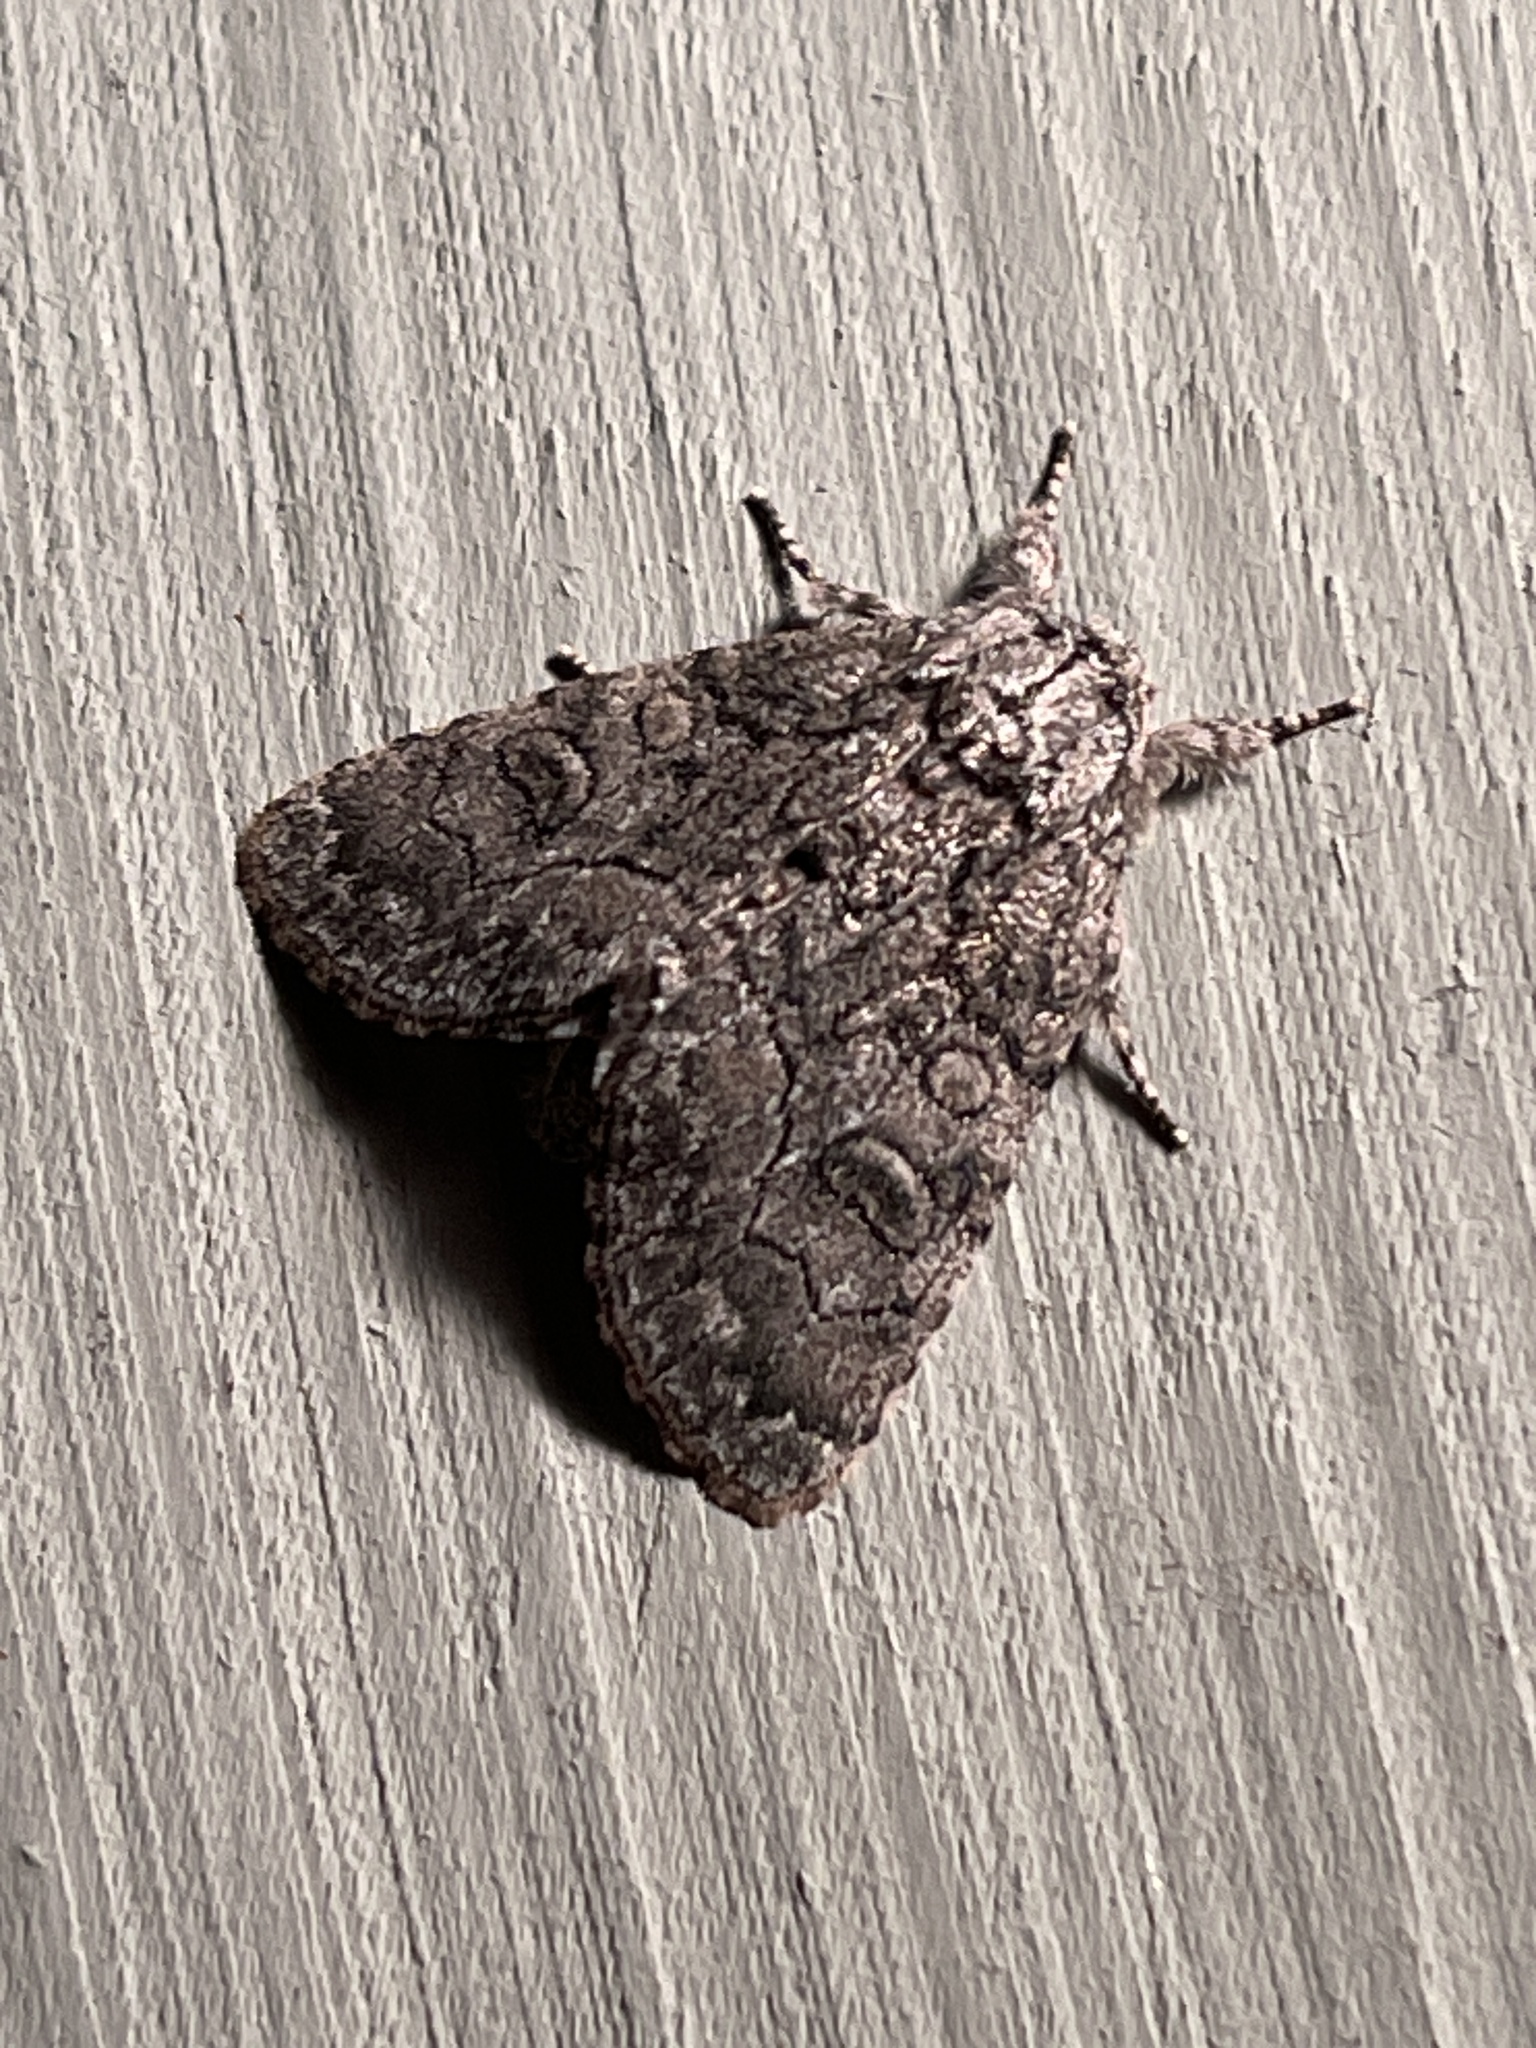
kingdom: Animalia
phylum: Arthropoda
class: Insecta
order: Lepidoptera
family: Noctuidae
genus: Raphia
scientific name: Raphia frater
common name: Brother
